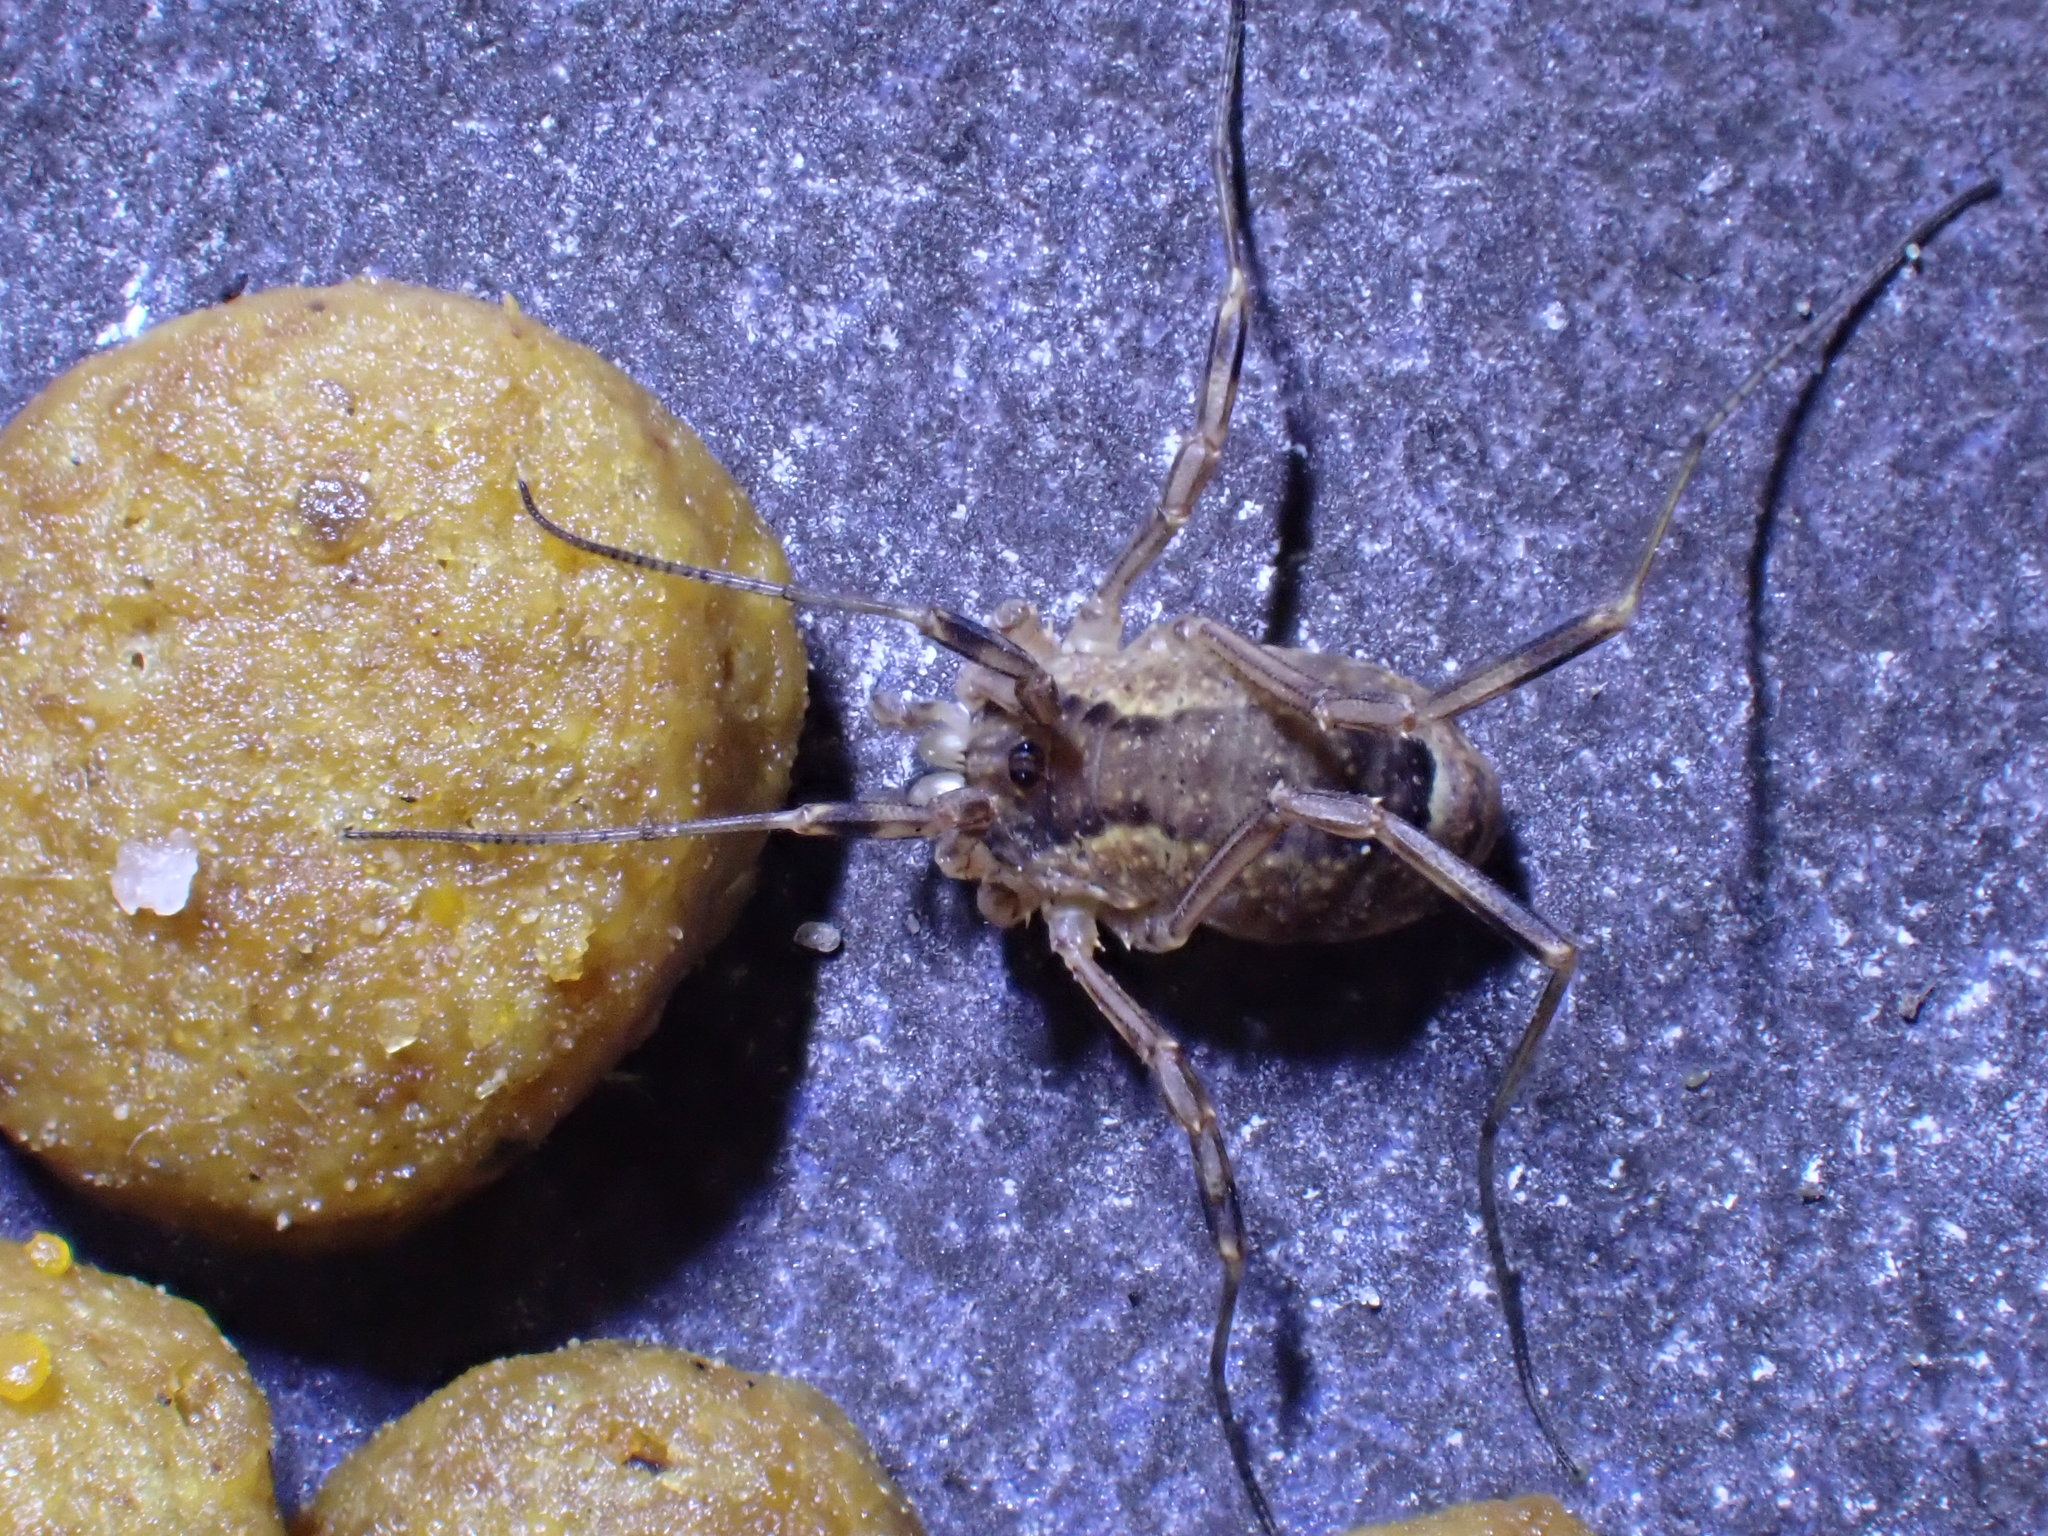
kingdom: Animalia
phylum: Arthropoda
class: Arachnida
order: Opiliones
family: Phalangiidae
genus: Oligolophus
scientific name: Oligolophus tridens
